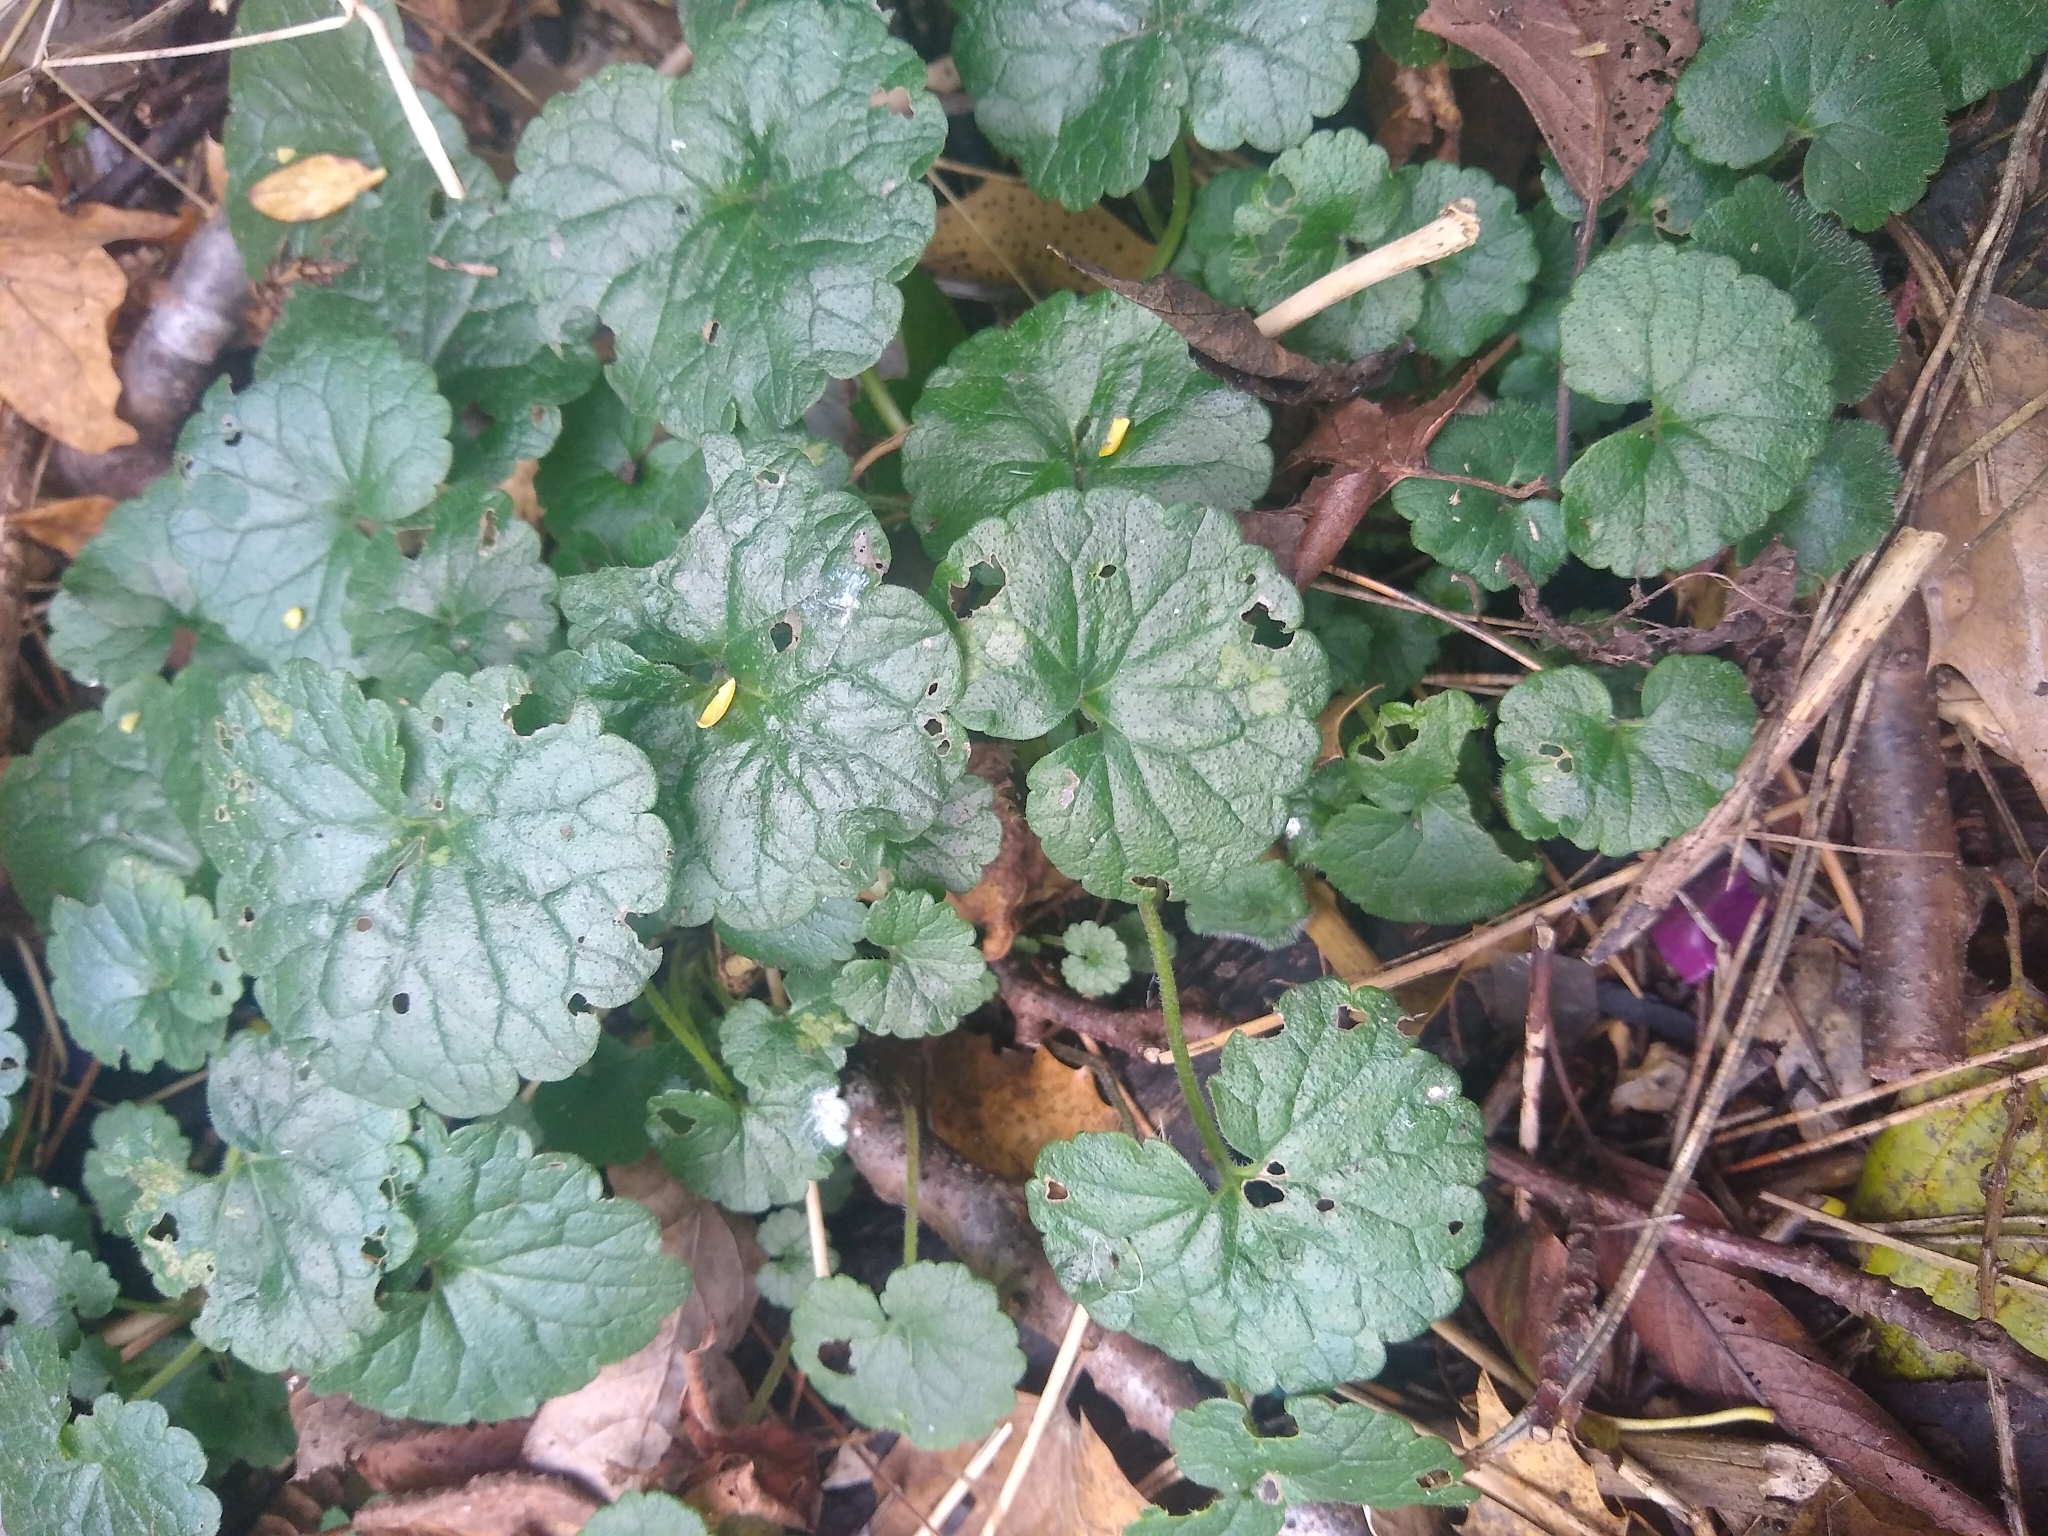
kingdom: Plantae
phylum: Tracheophyta
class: Magnoliopsida
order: Lamiales
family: Lamiaceae
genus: Glechoma
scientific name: Glechoma hederacea
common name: Ground ivy
